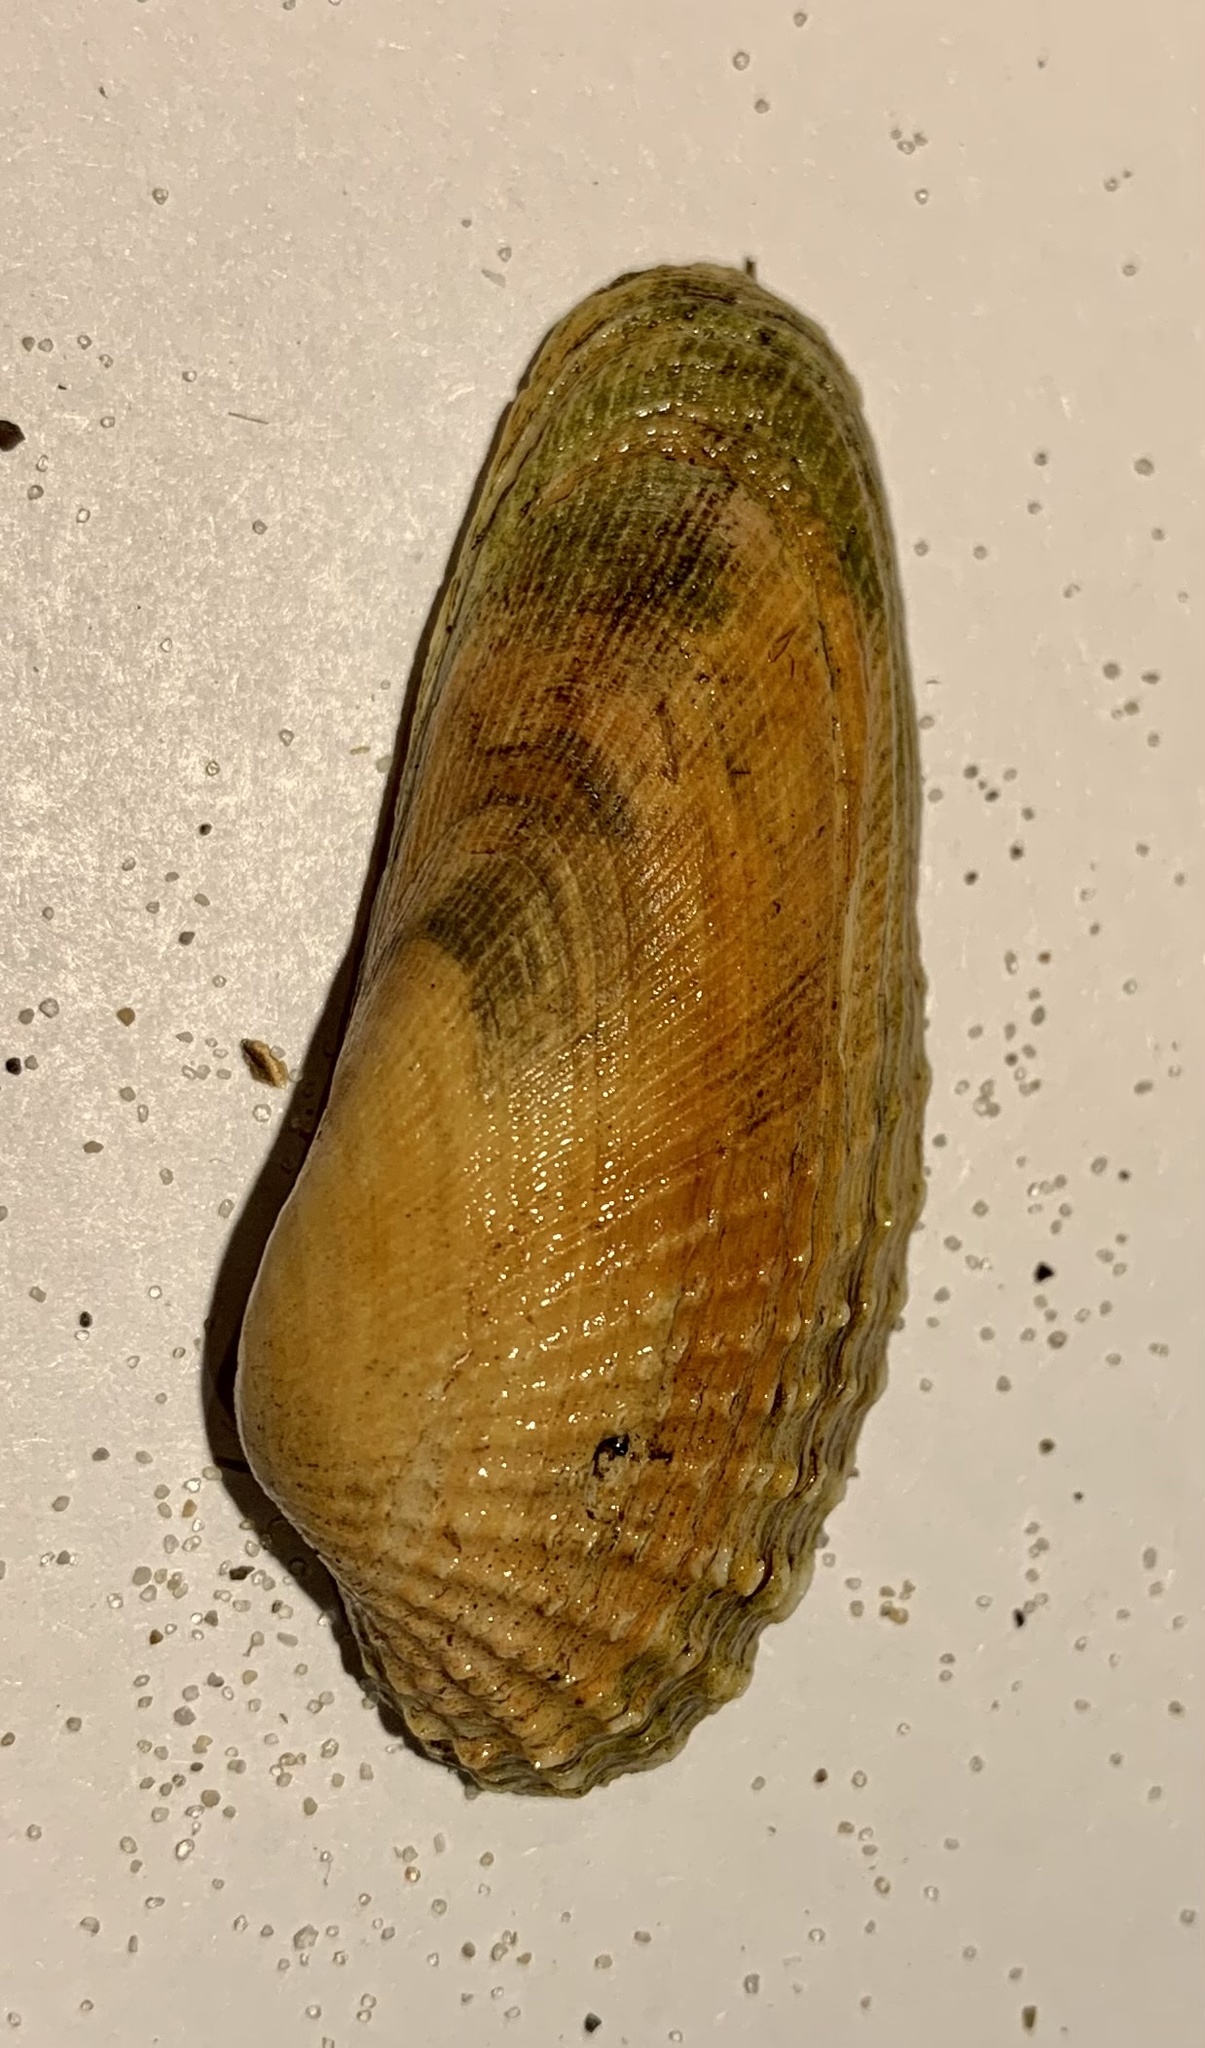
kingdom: Animalia
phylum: Mollusca
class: Bivalvia
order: Venerida
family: Veneridae
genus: Petricolaria
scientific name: Petricolaria pholadiformis
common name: American piddock
